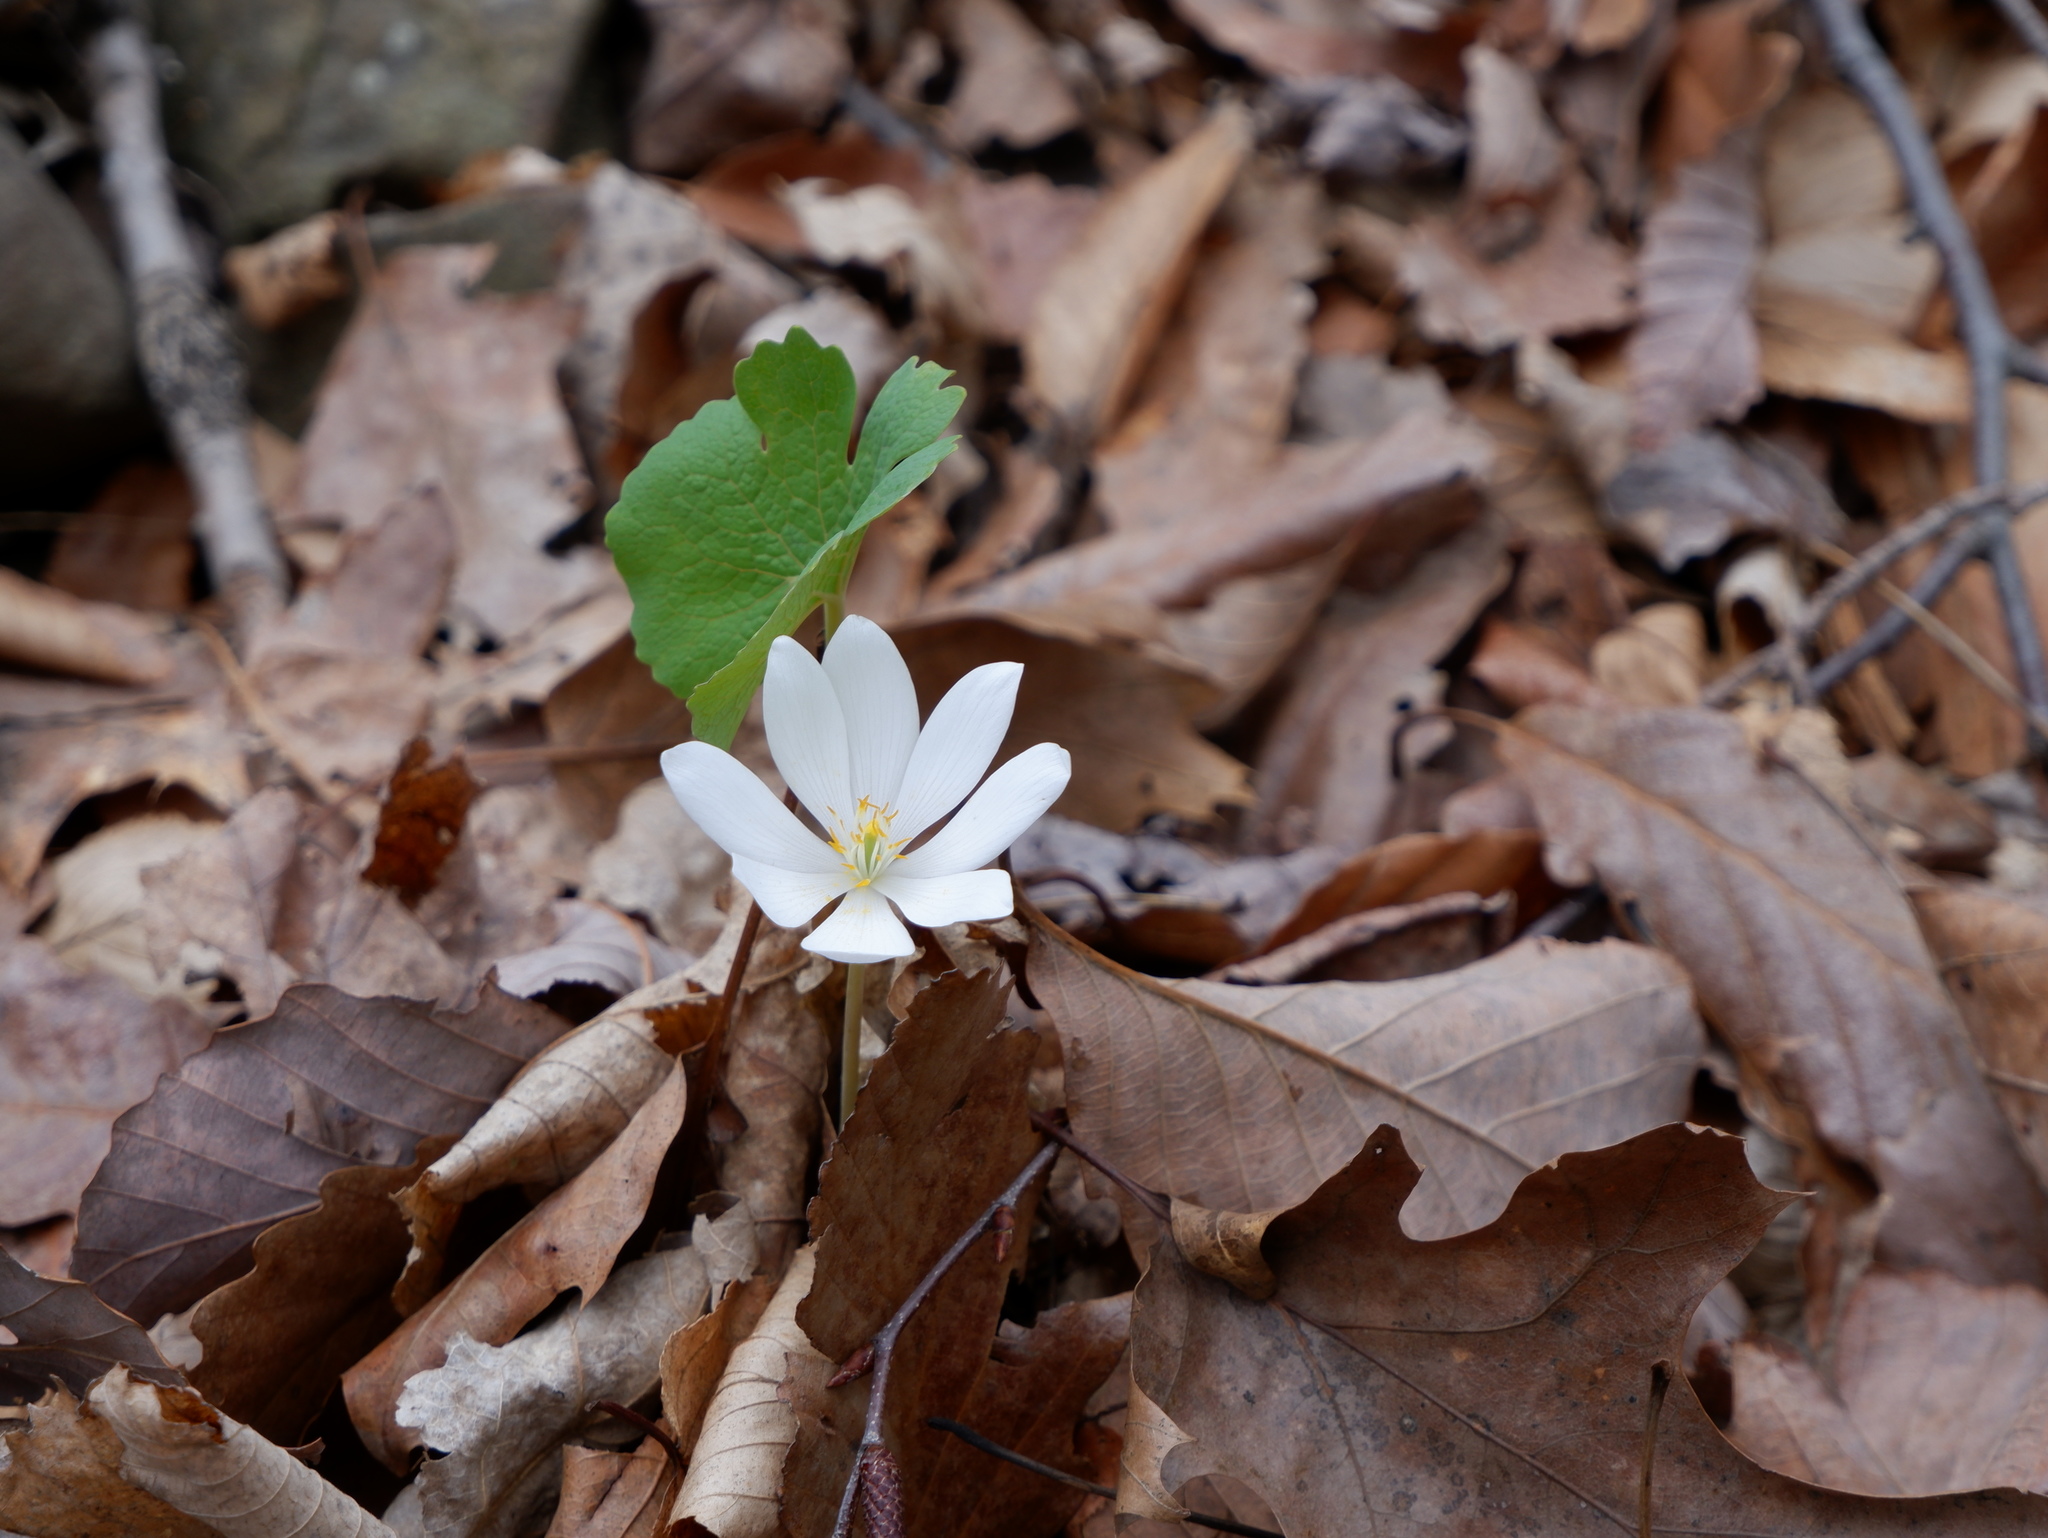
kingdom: Plantae
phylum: Tracheophyta
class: Magnoliopsida
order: Ranunculales
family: Papaveraceae
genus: Sanguinaria
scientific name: Sanguinaria canadensis
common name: Bloodroot
